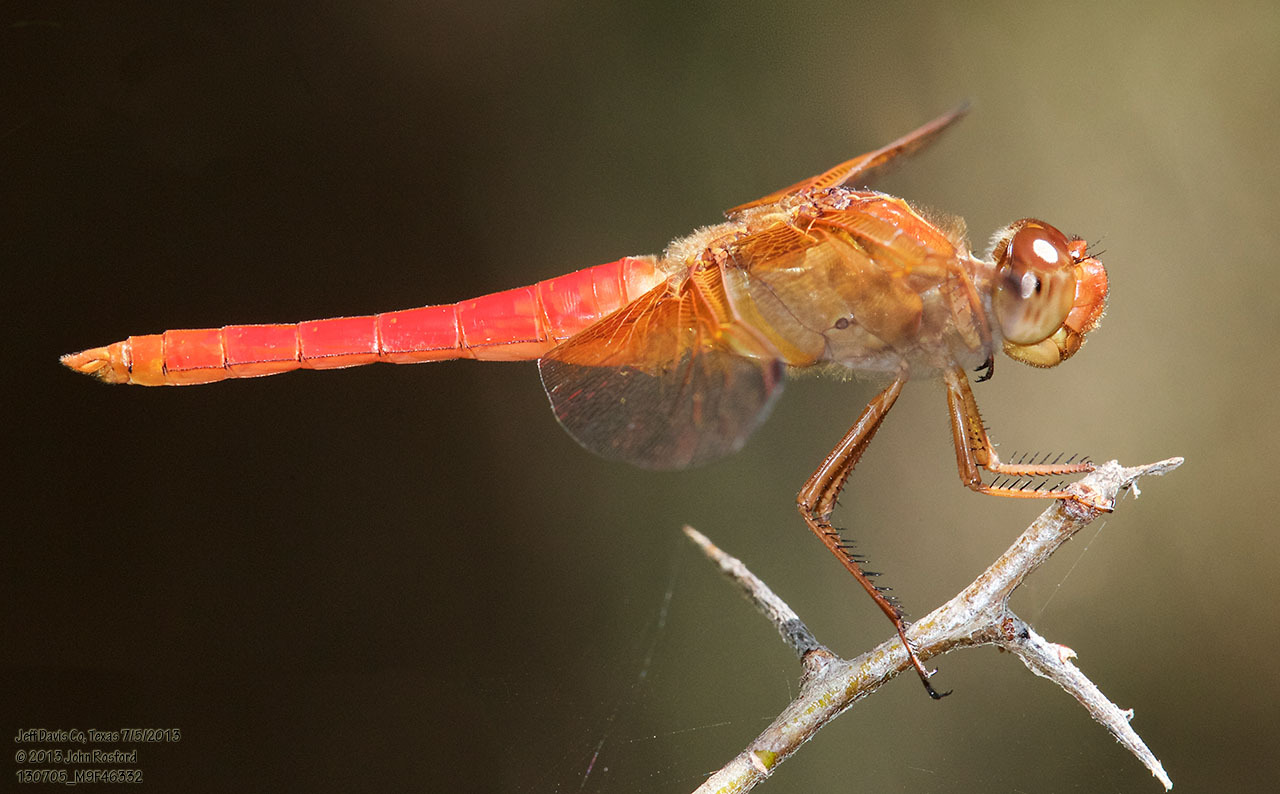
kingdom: Animalia
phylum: Arthropoda
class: Insecta
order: Odonata
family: Libellulidae
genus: Libellula
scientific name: Libellula croceipennis
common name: Neon skimmer
